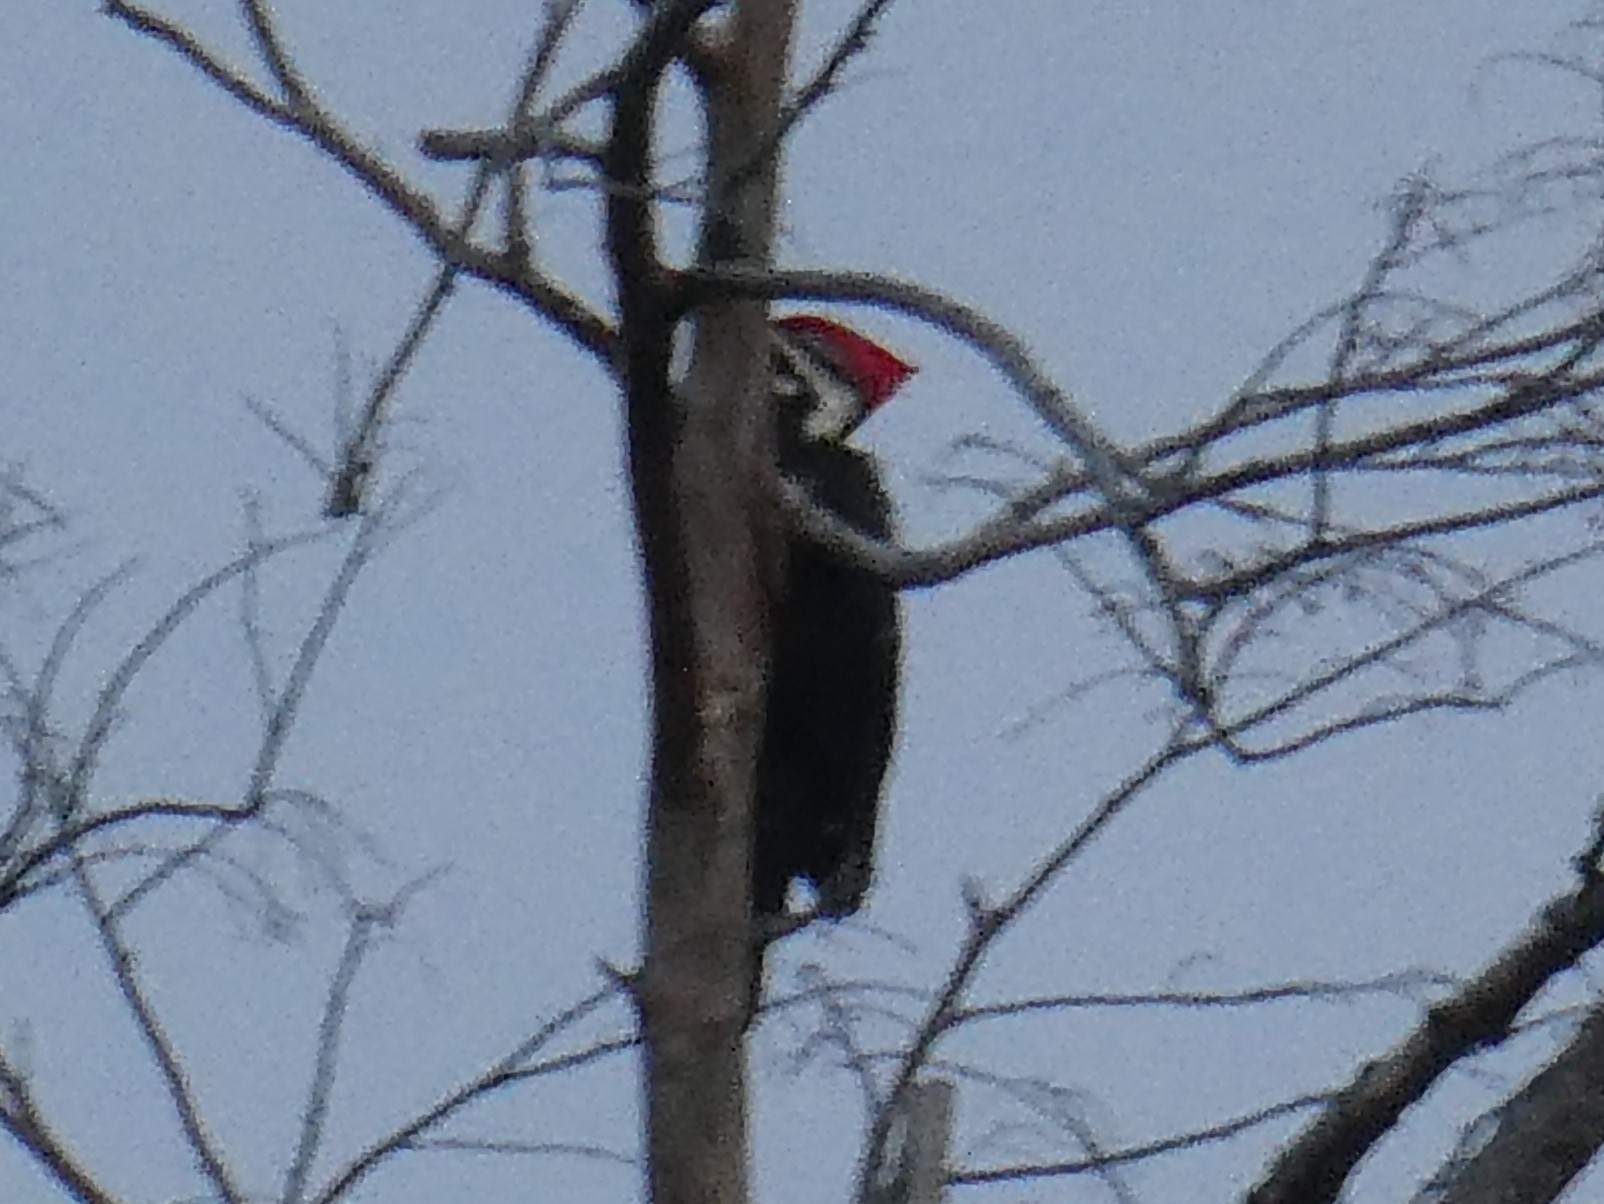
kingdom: Animalia
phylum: Chordata
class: Aves
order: Piciformes
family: Picidae
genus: Dryocopus
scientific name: Dryocopus pileatus
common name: Pileated woodpecker
